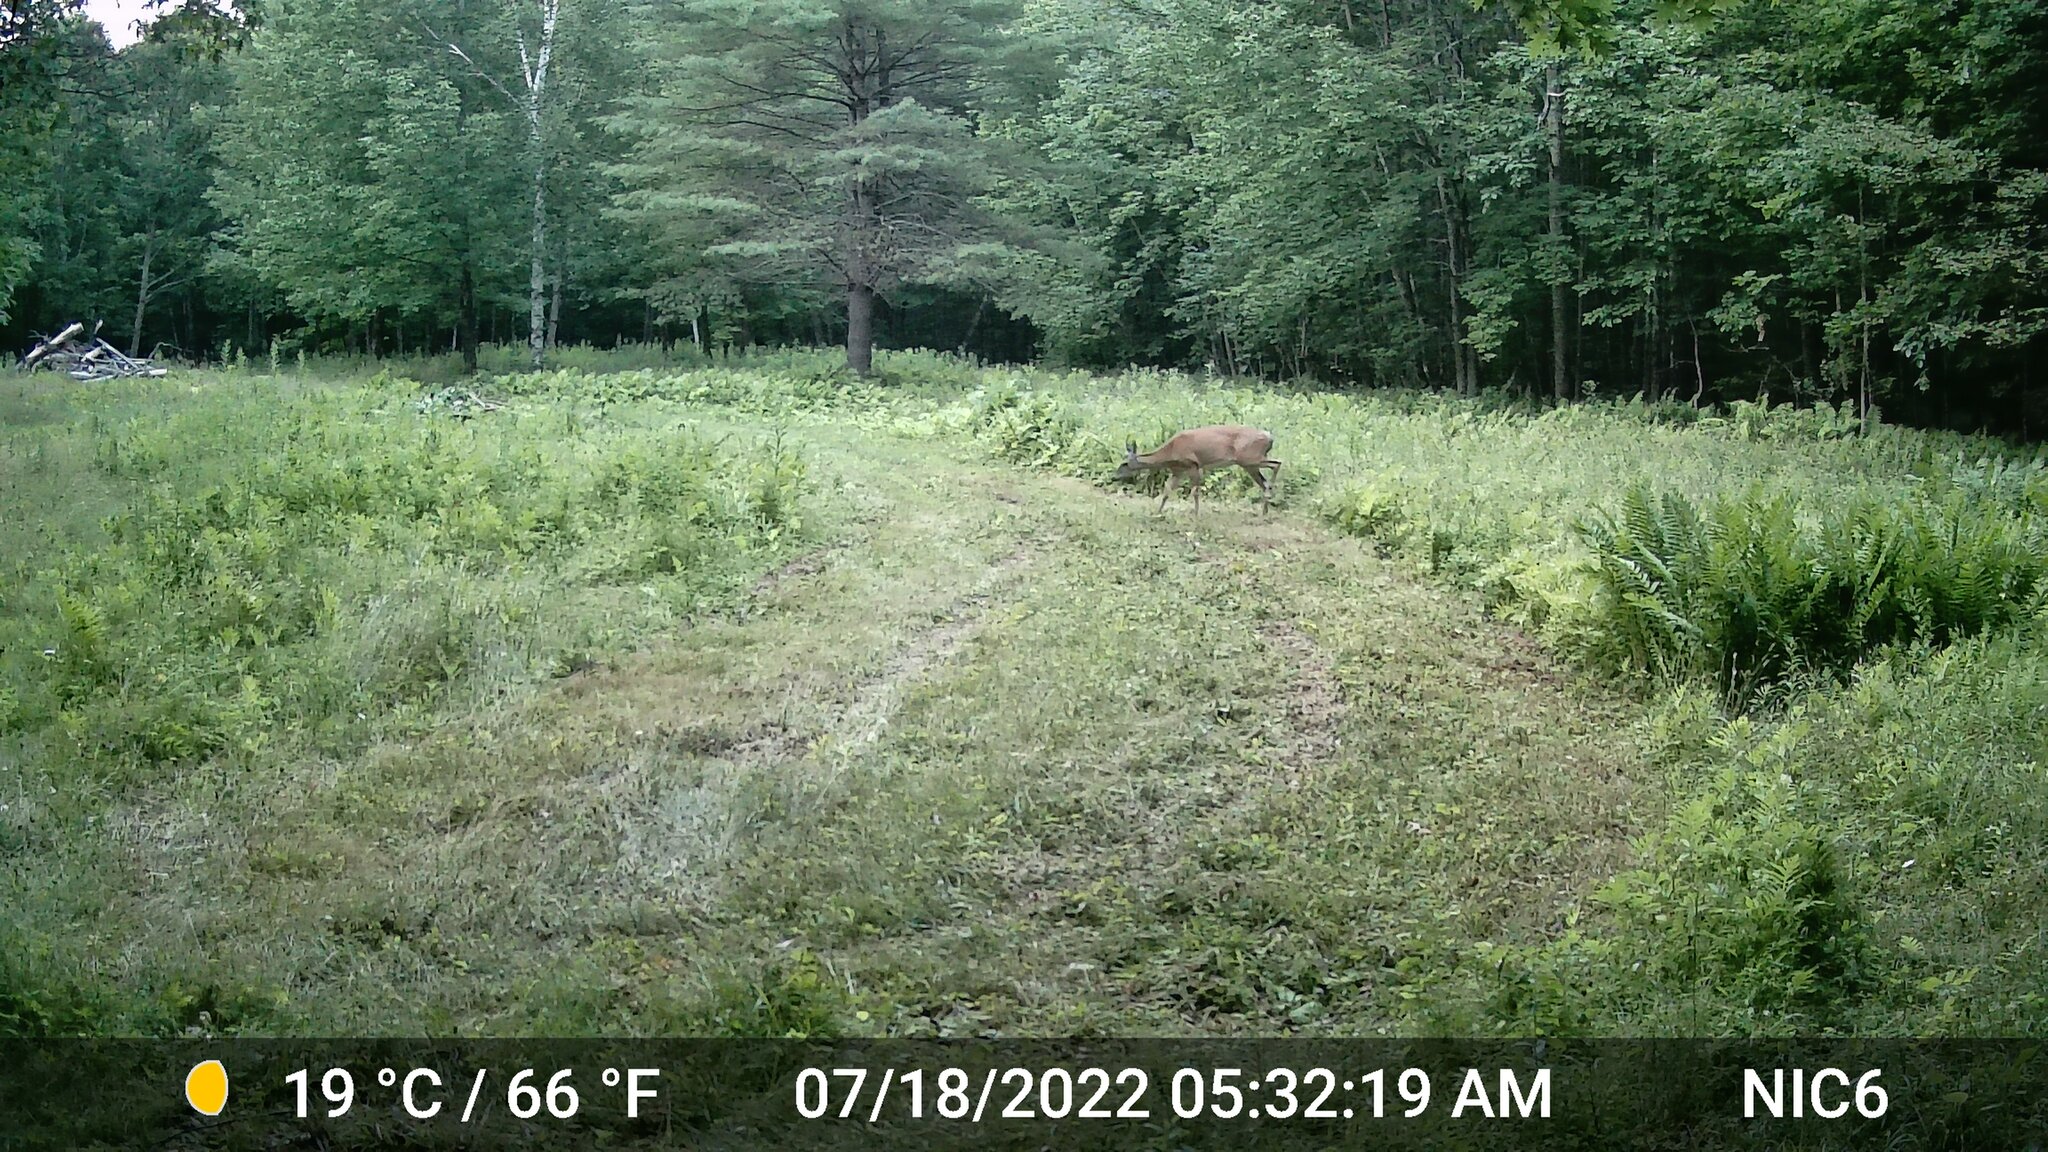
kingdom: Animalia
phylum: Chordata
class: Mammalia
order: Artiodactyla
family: Cervidae
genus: Odocoileus
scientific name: Odocoileus virginianus
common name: White-tailed deer
